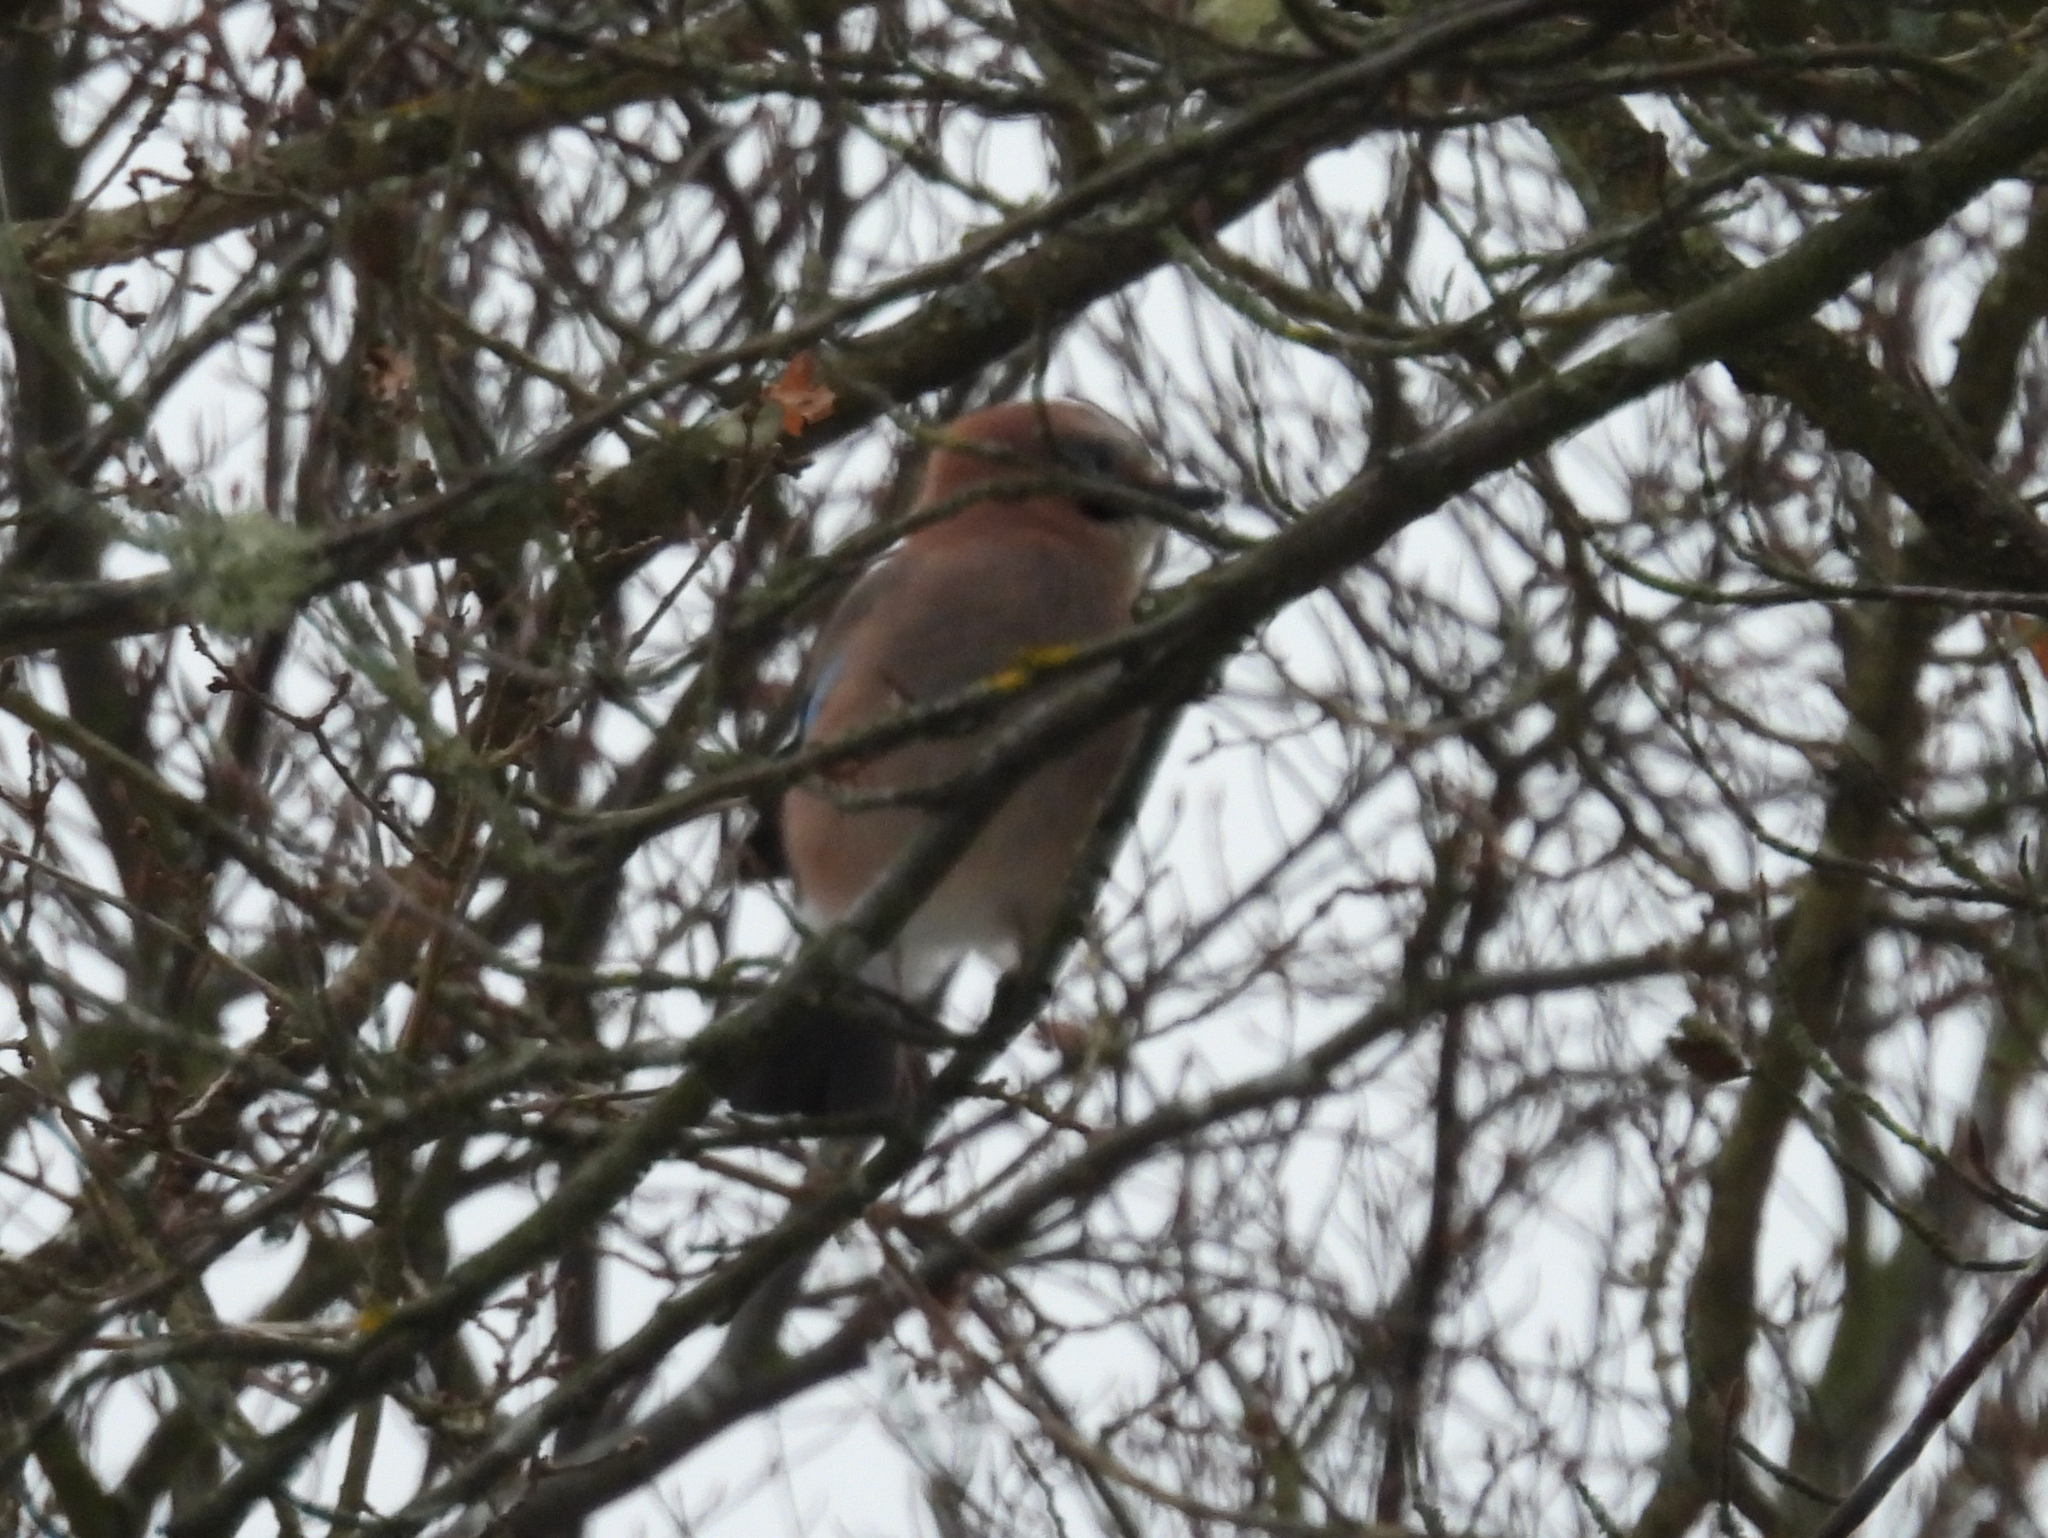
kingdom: Animalia
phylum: Chordata
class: Aves
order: Passeriformes
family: Corvidae
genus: Garrulus
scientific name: Garrulus glandarius
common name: Eurasian jay
